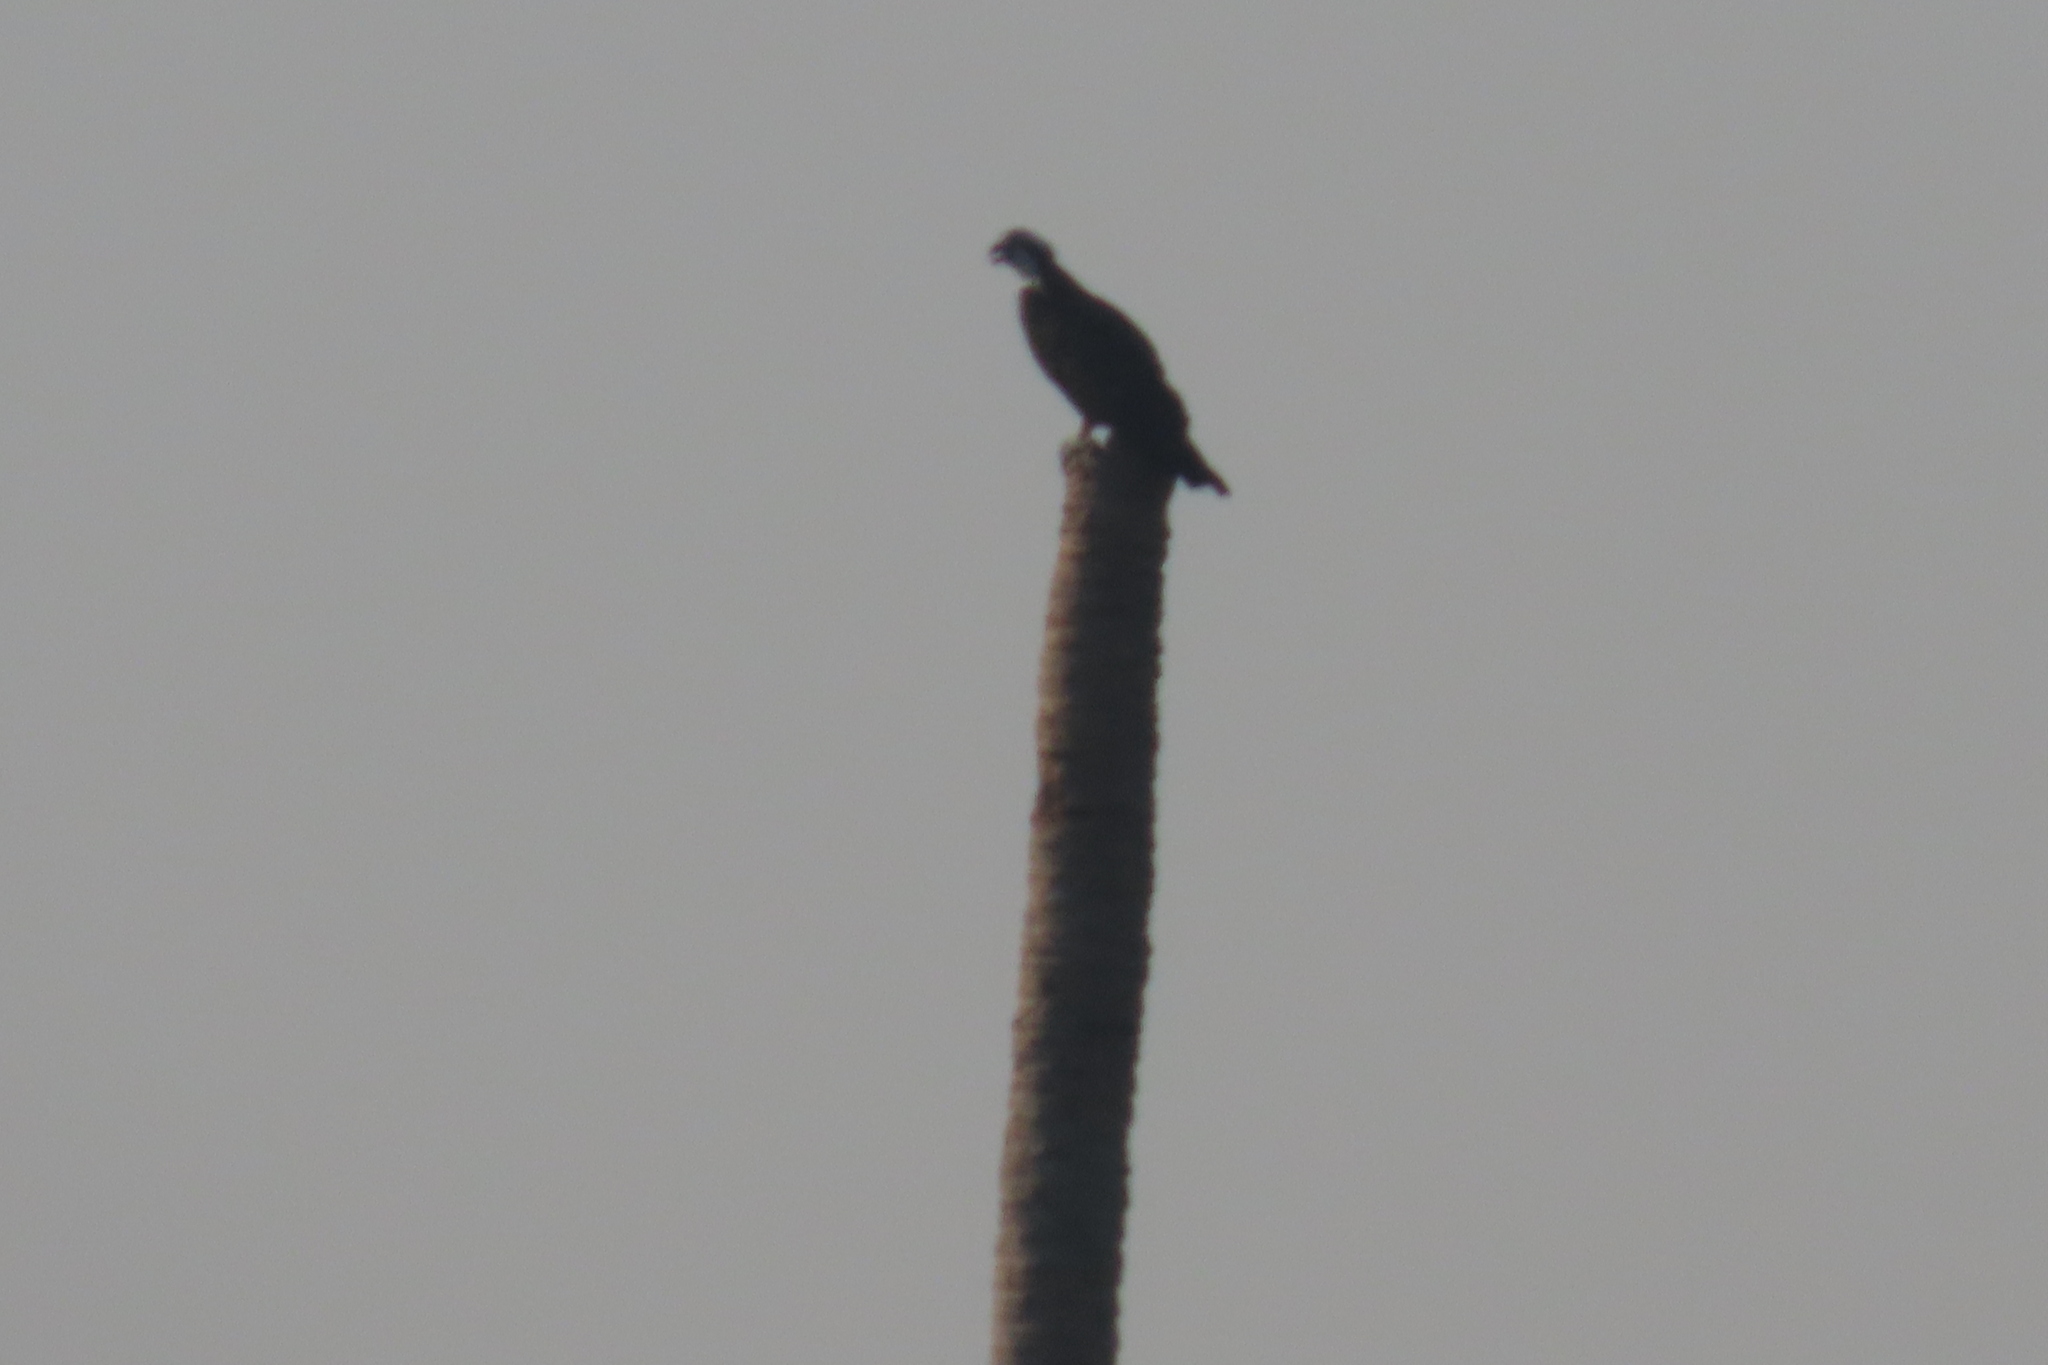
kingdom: Animalia
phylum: Chordata
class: Aves
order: Accipitriformes
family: Pandionidae
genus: Pandion
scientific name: Pandion haliaetus
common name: Osprey
